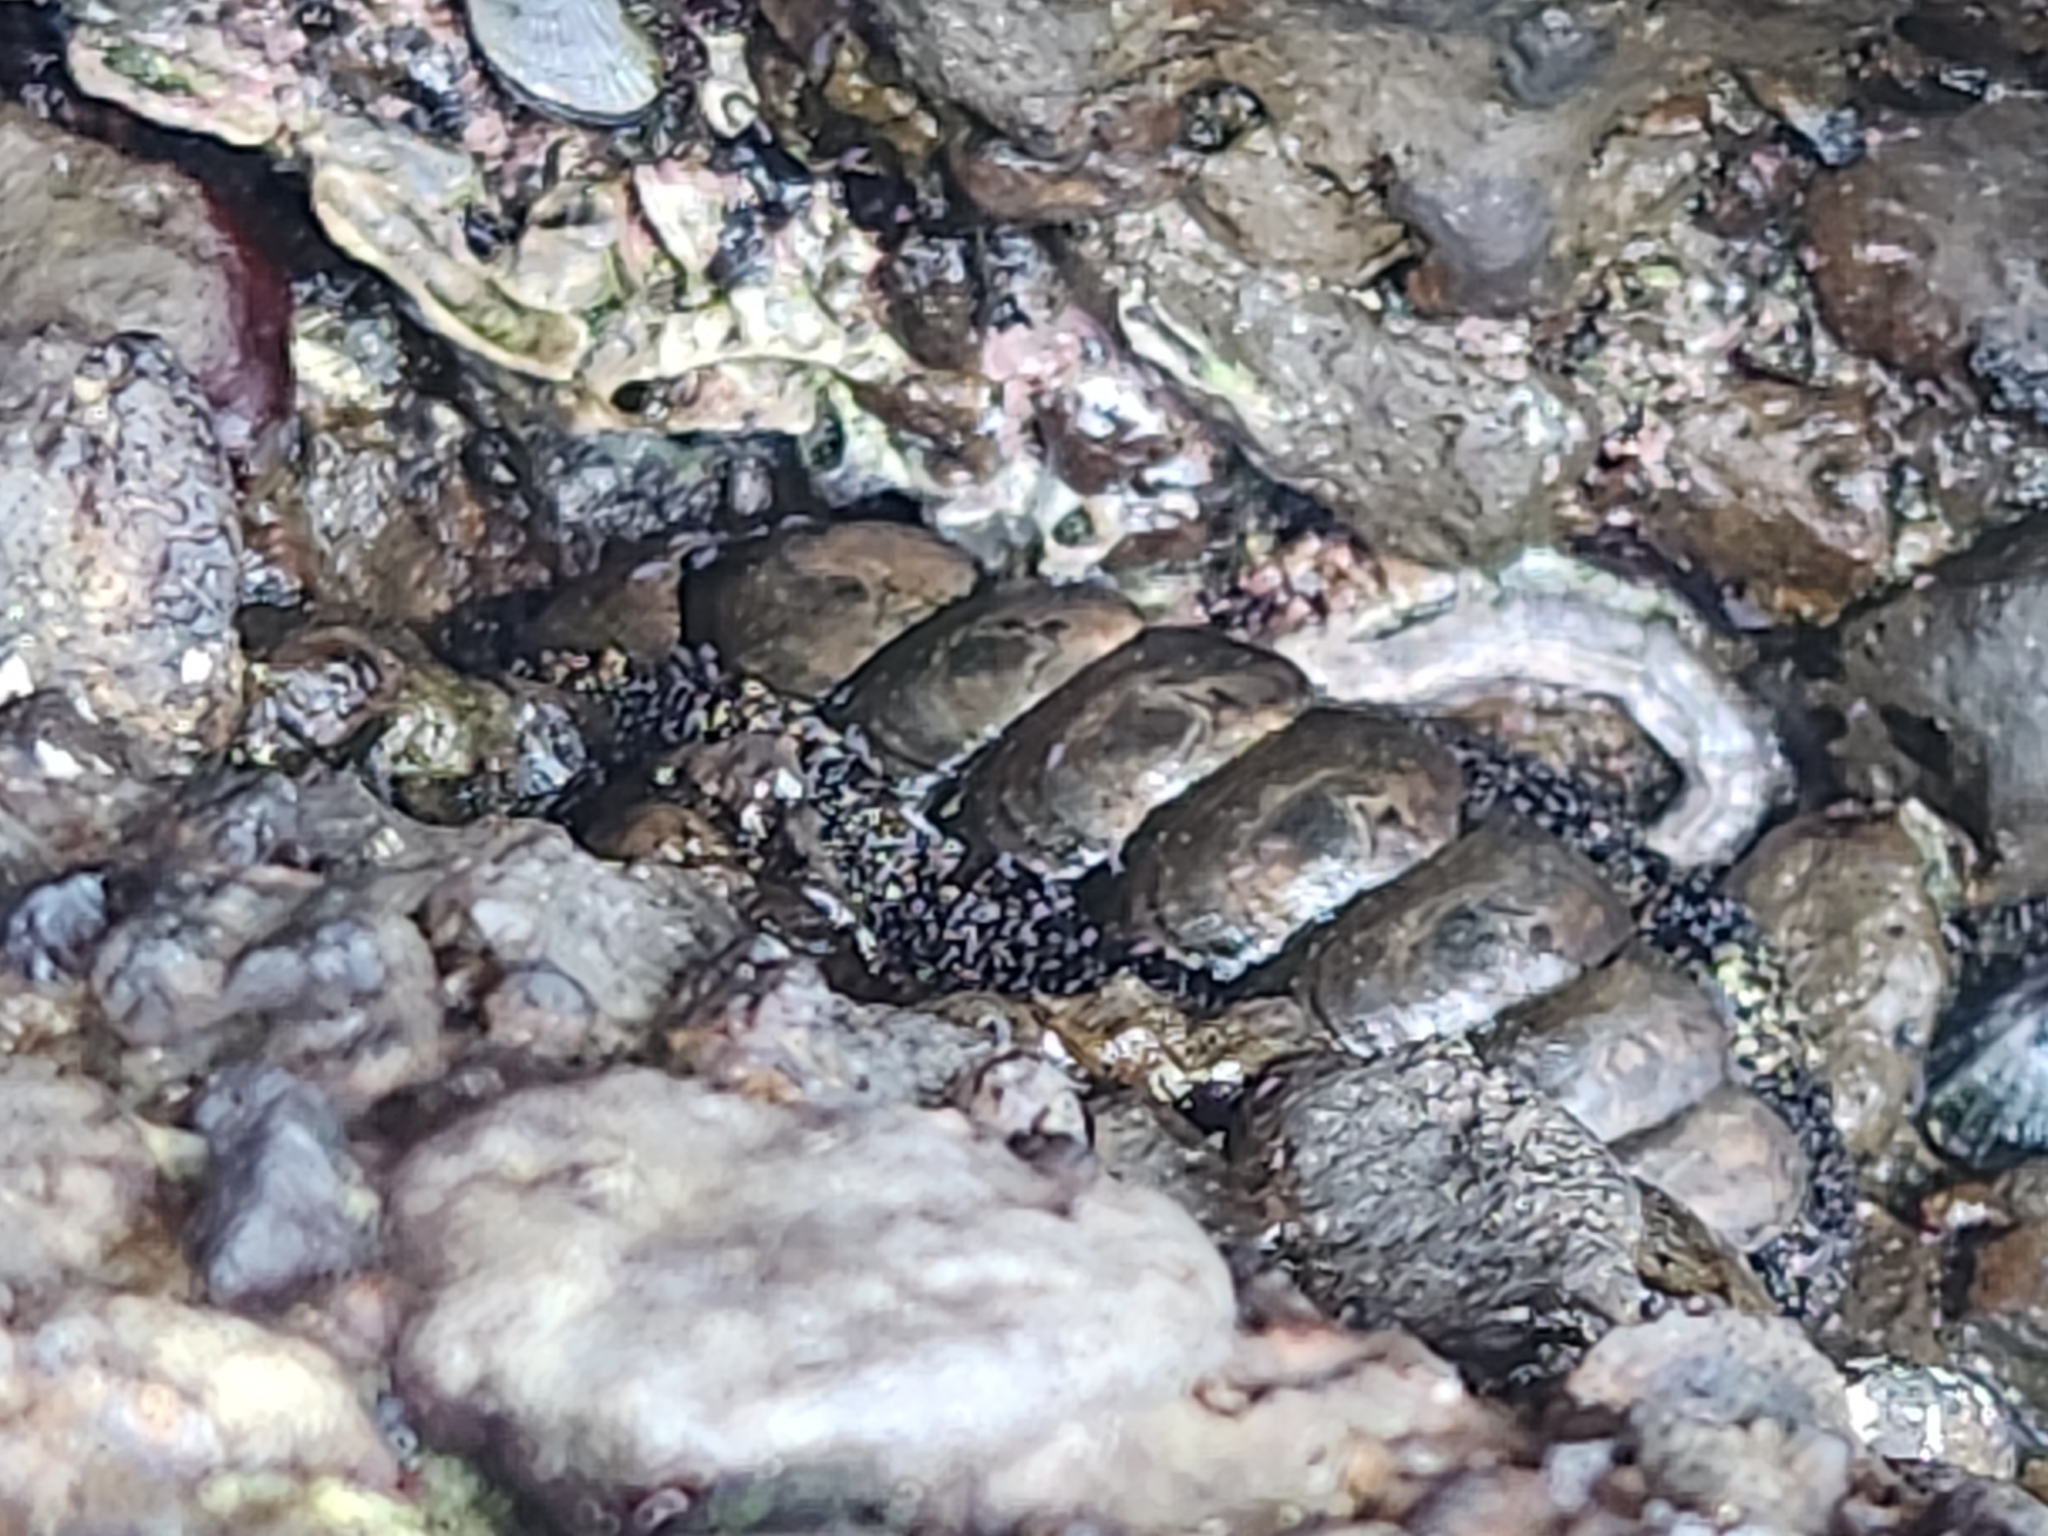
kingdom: Animalia
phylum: Mollusca
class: Polyplacophora
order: Chitonida
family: Chitonidae
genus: Liolophura
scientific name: Liolophura japonica
